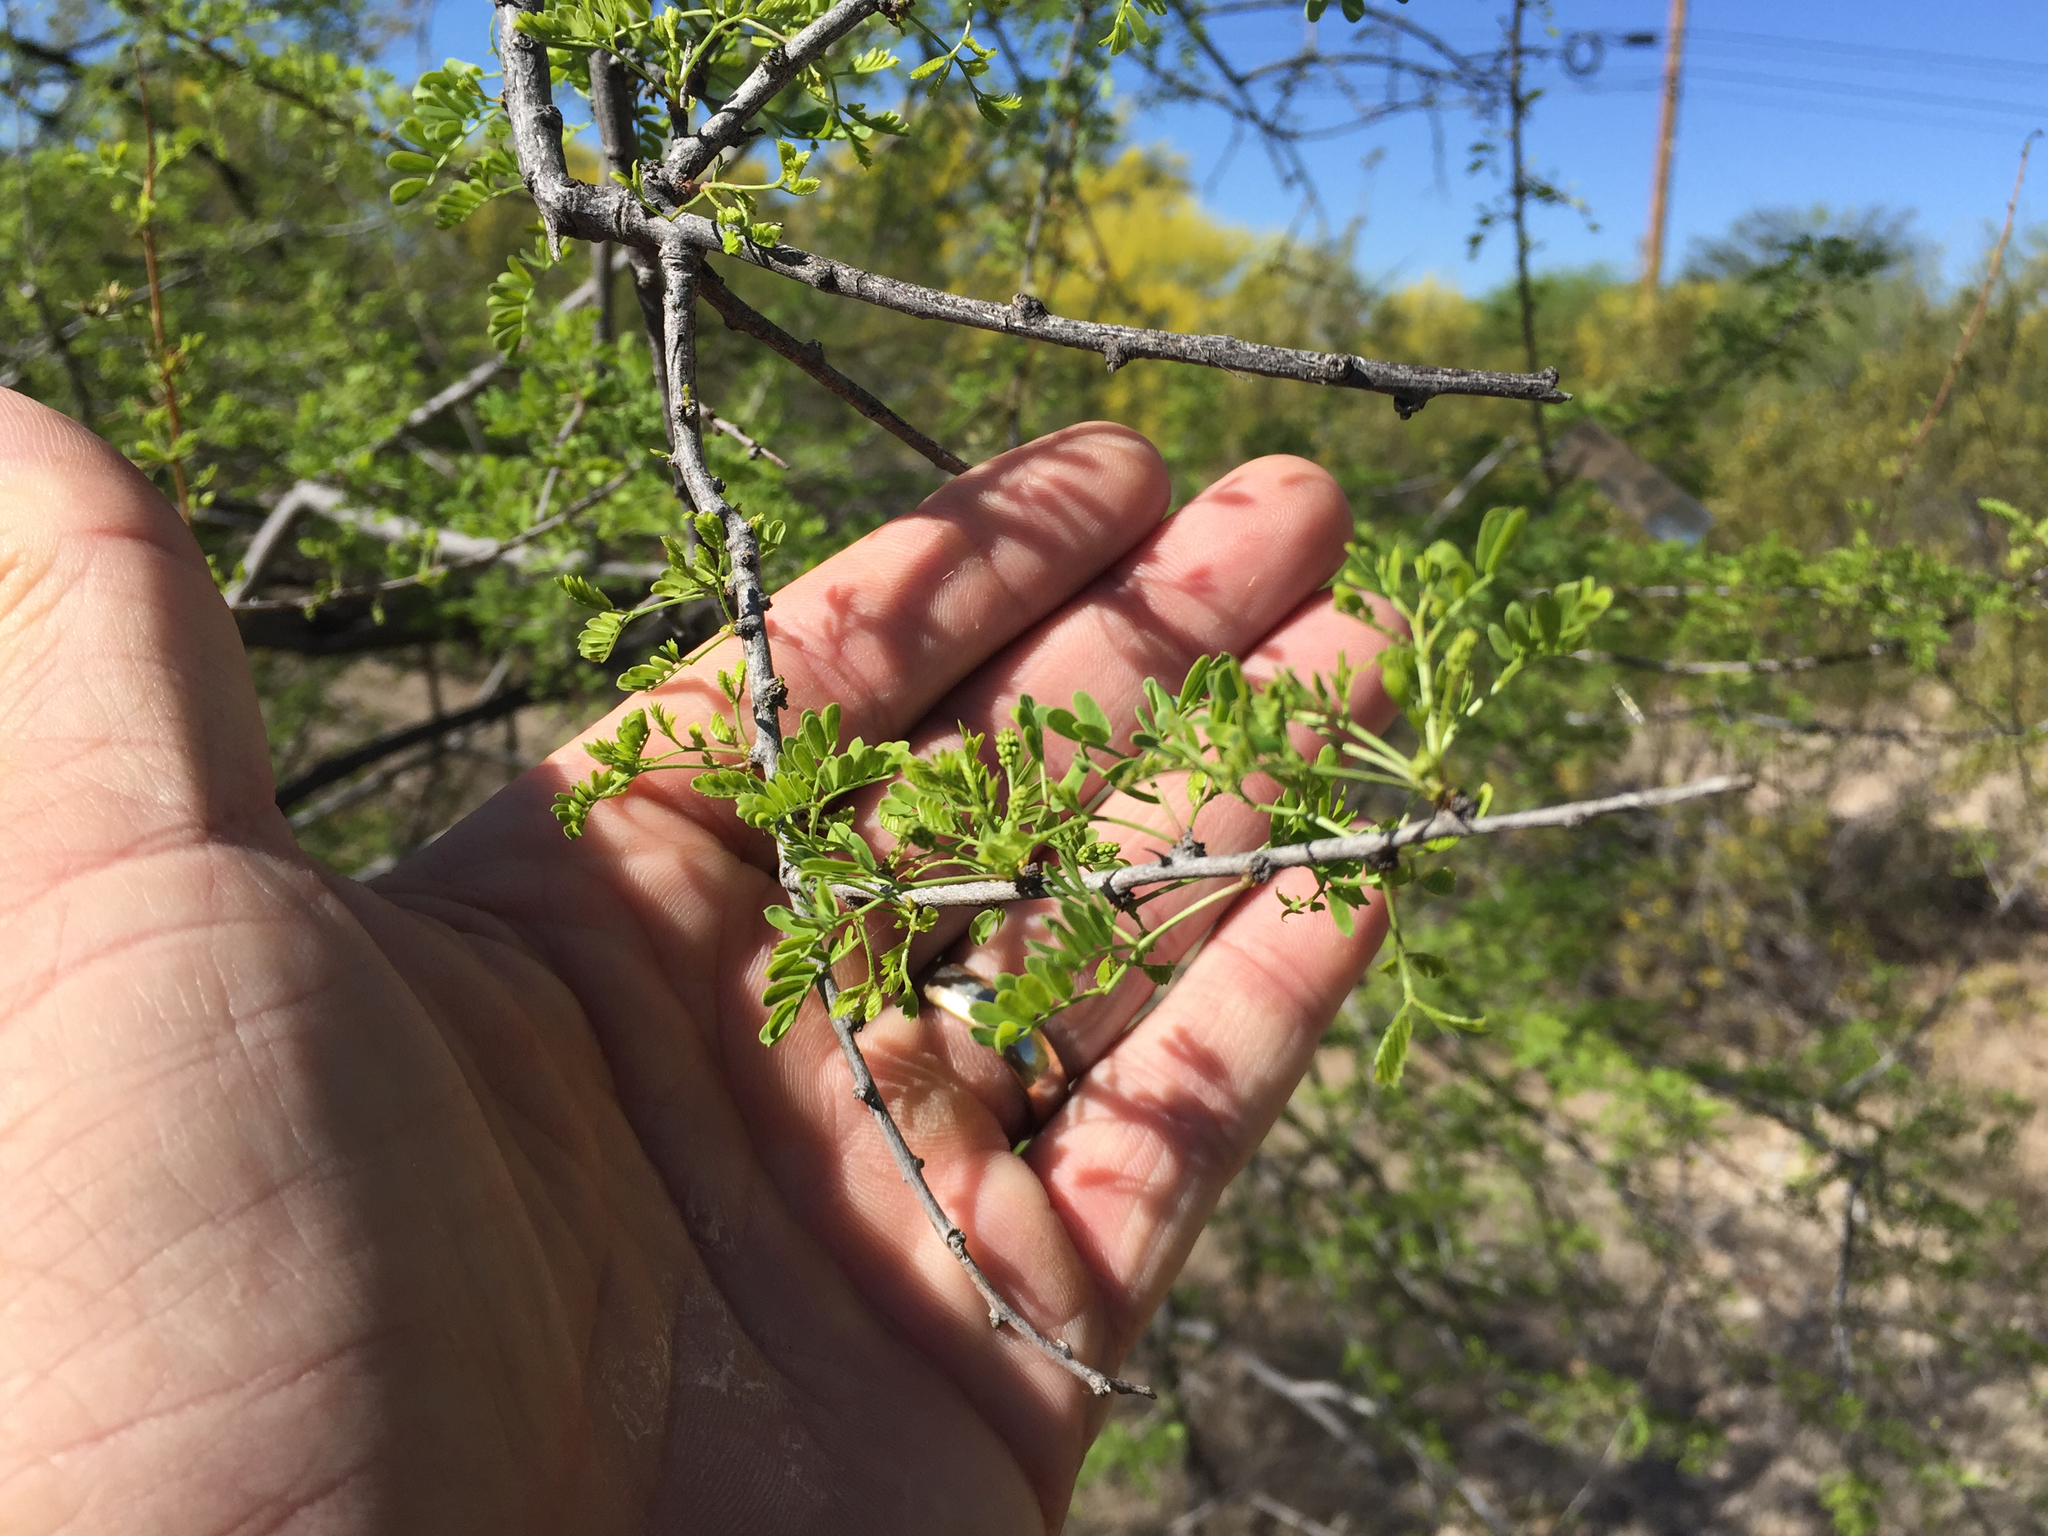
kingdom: Plantae
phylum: Tracheophyta
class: Magnoliopsida
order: Fabales
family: Fabaceae
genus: Senegalia
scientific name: Senegalia greggii
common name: Texas-mimosa
